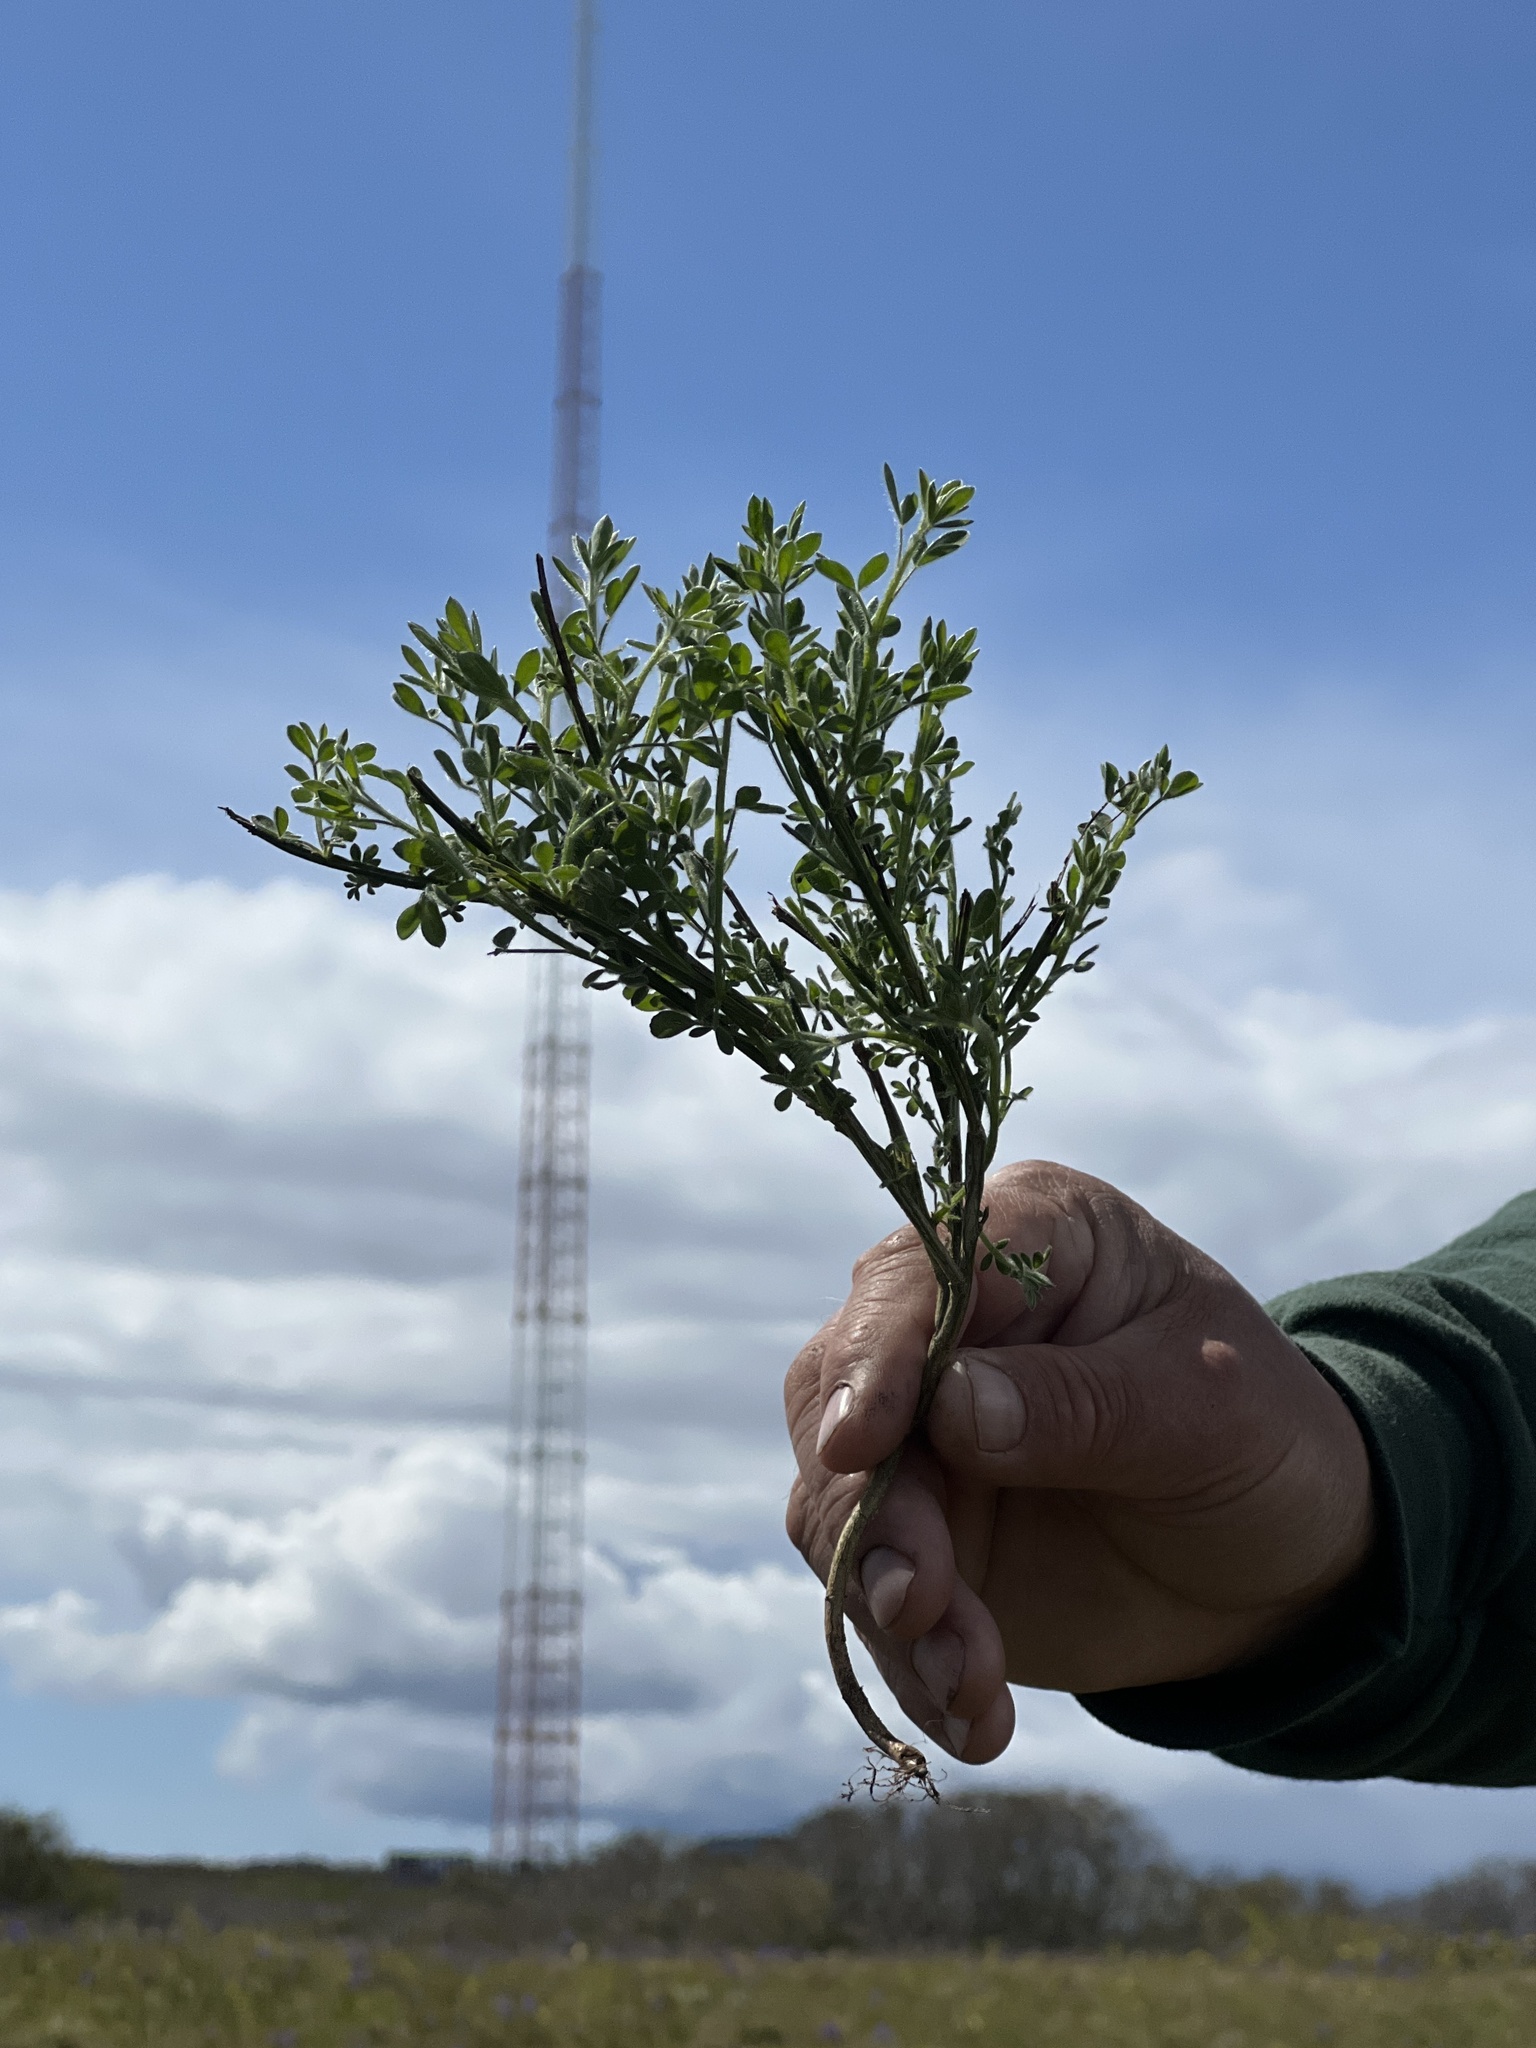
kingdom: Plantae
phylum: Tracheophyta
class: Magnoliopsida
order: Fabales
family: Fabaceae
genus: Cytisus
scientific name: Cytisus scoparius
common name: Scotch broom
